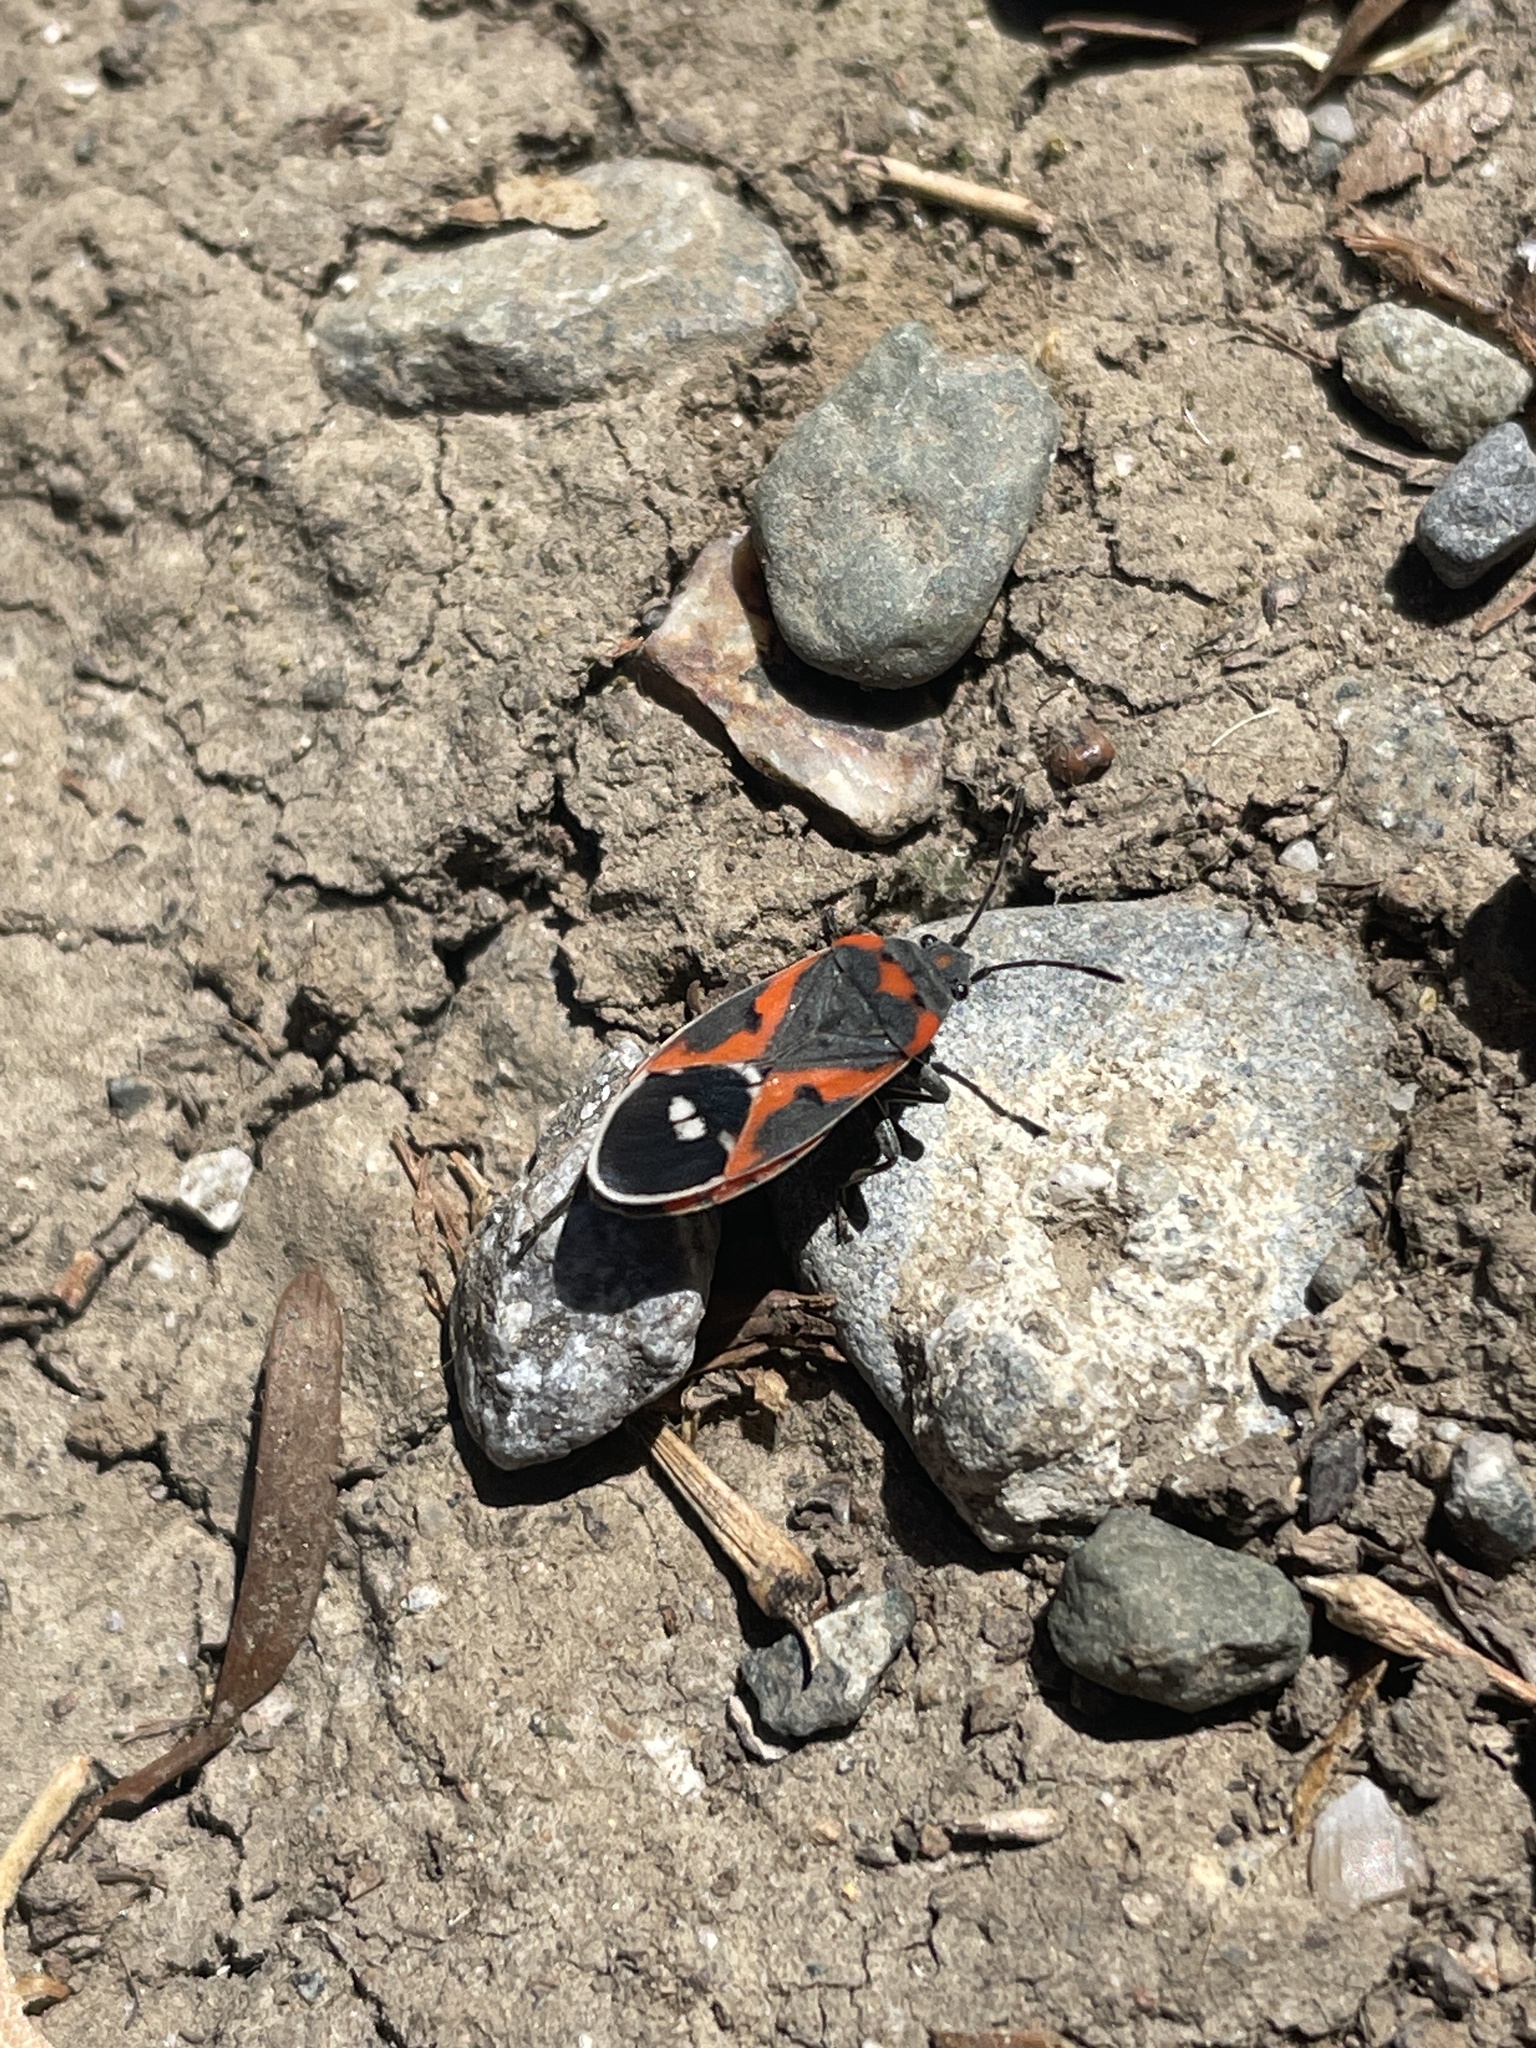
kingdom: Animalia
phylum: Arthropoda
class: Insecta
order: Hemiptera
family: Lygaeidae
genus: Lygaeus
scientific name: Lygaeus kalmii
